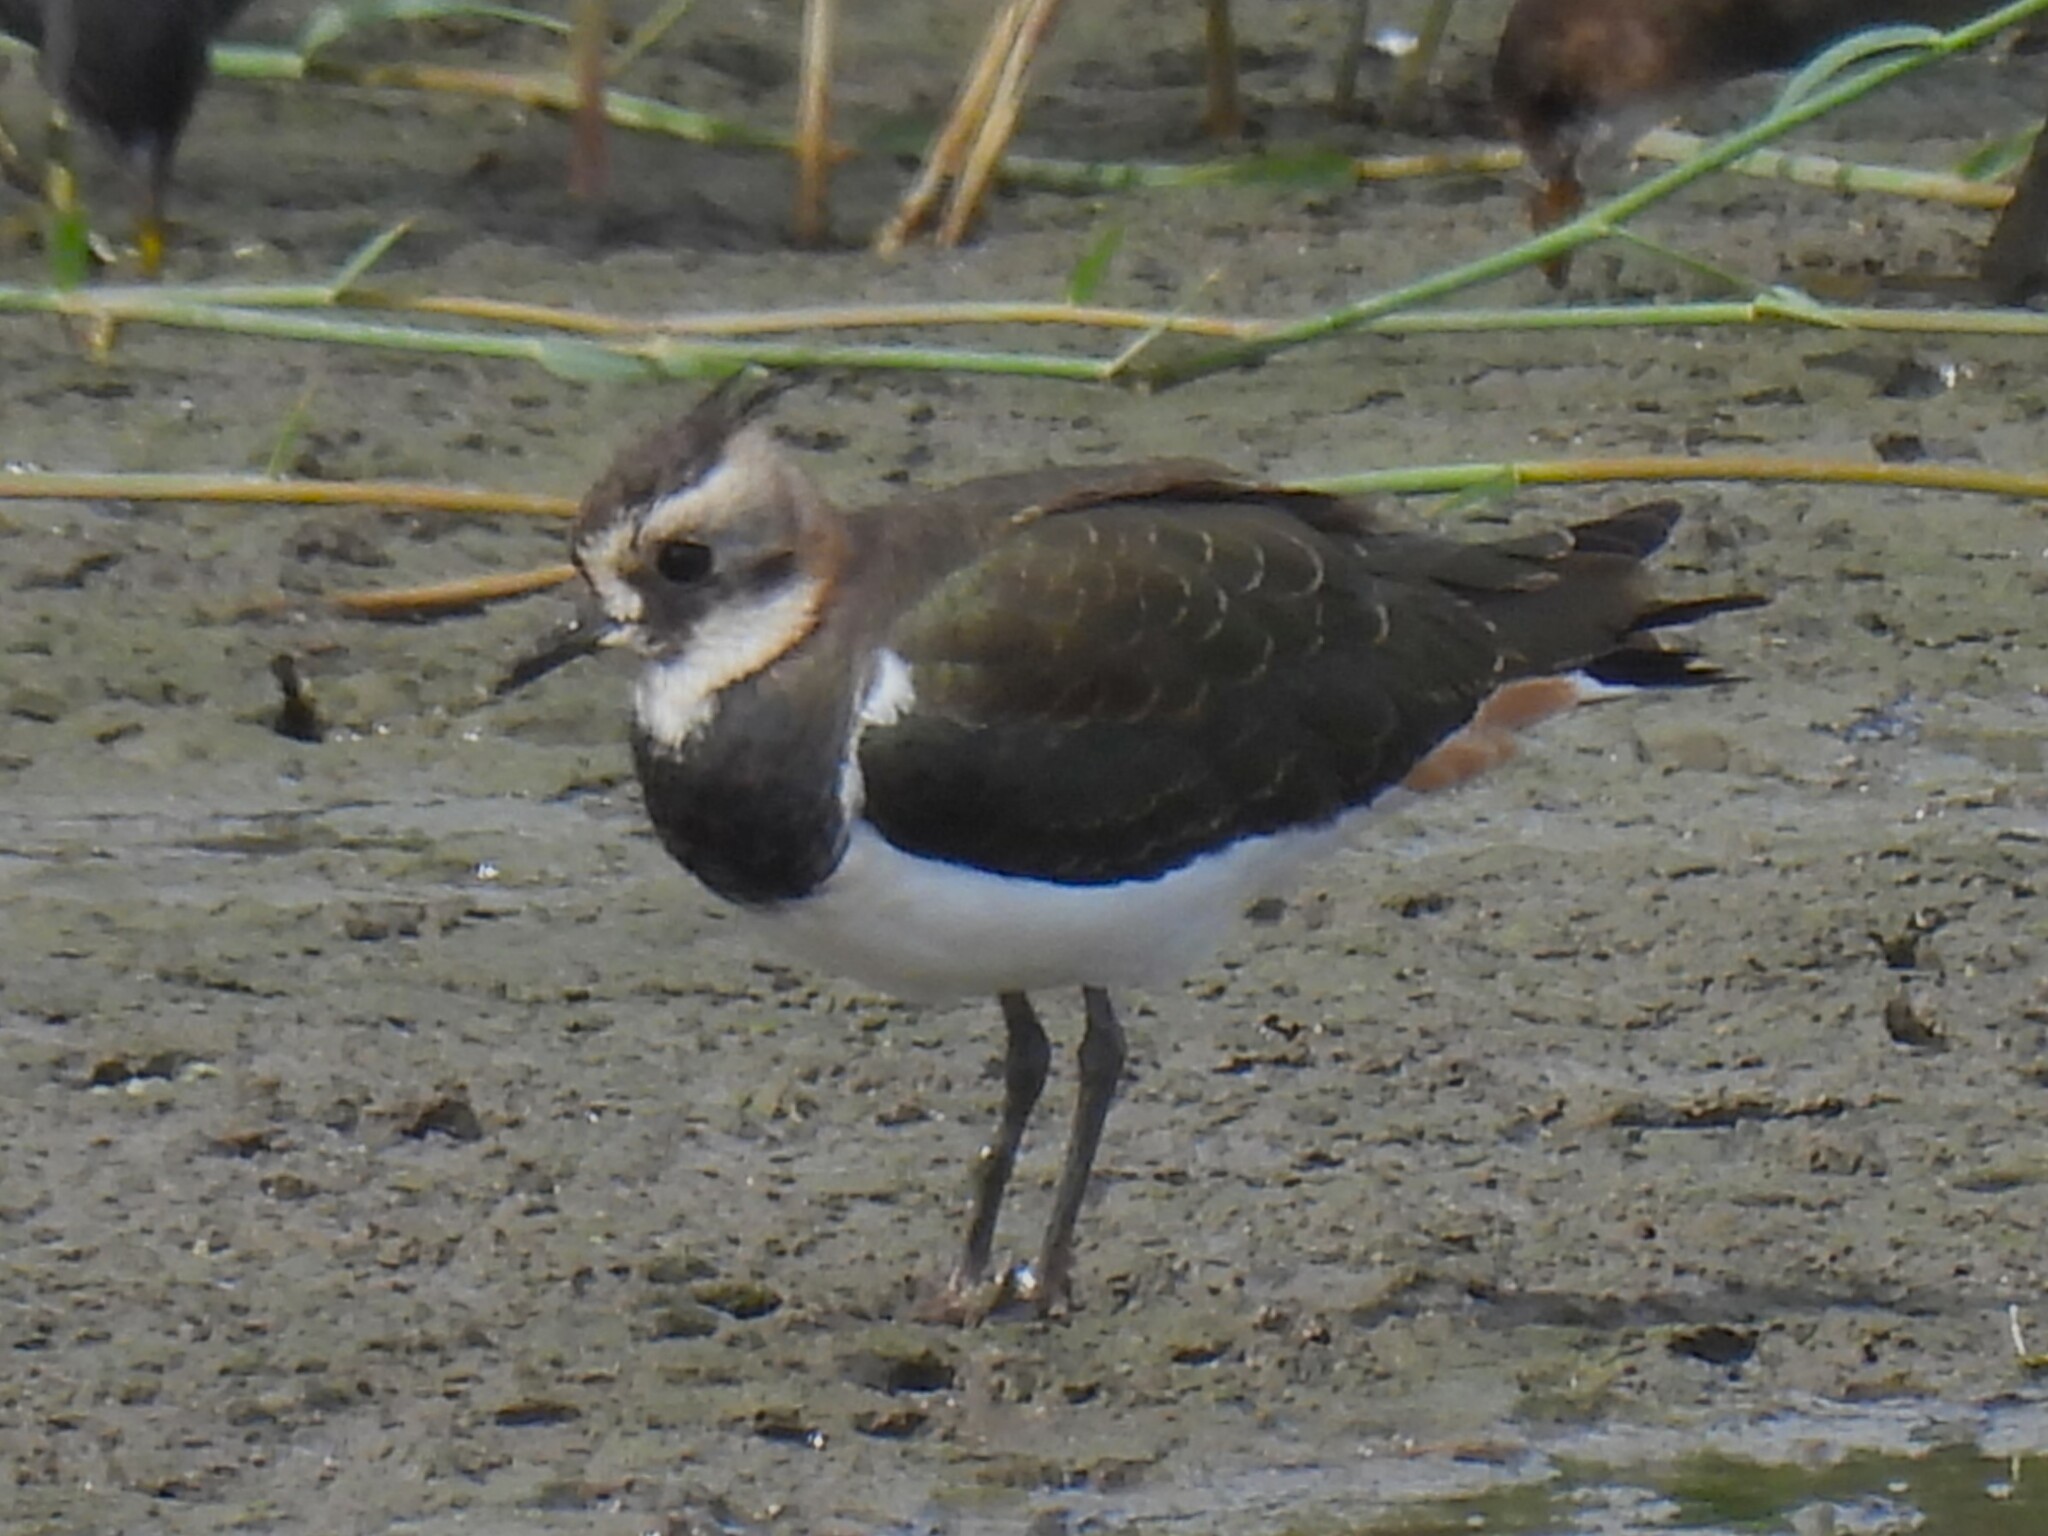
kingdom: Animalia
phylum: Chordata
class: Aves
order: Charadriiformes
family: Charadriidae
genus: Vanellus
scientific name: Vanellus vanellus
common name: Northern lapwing
